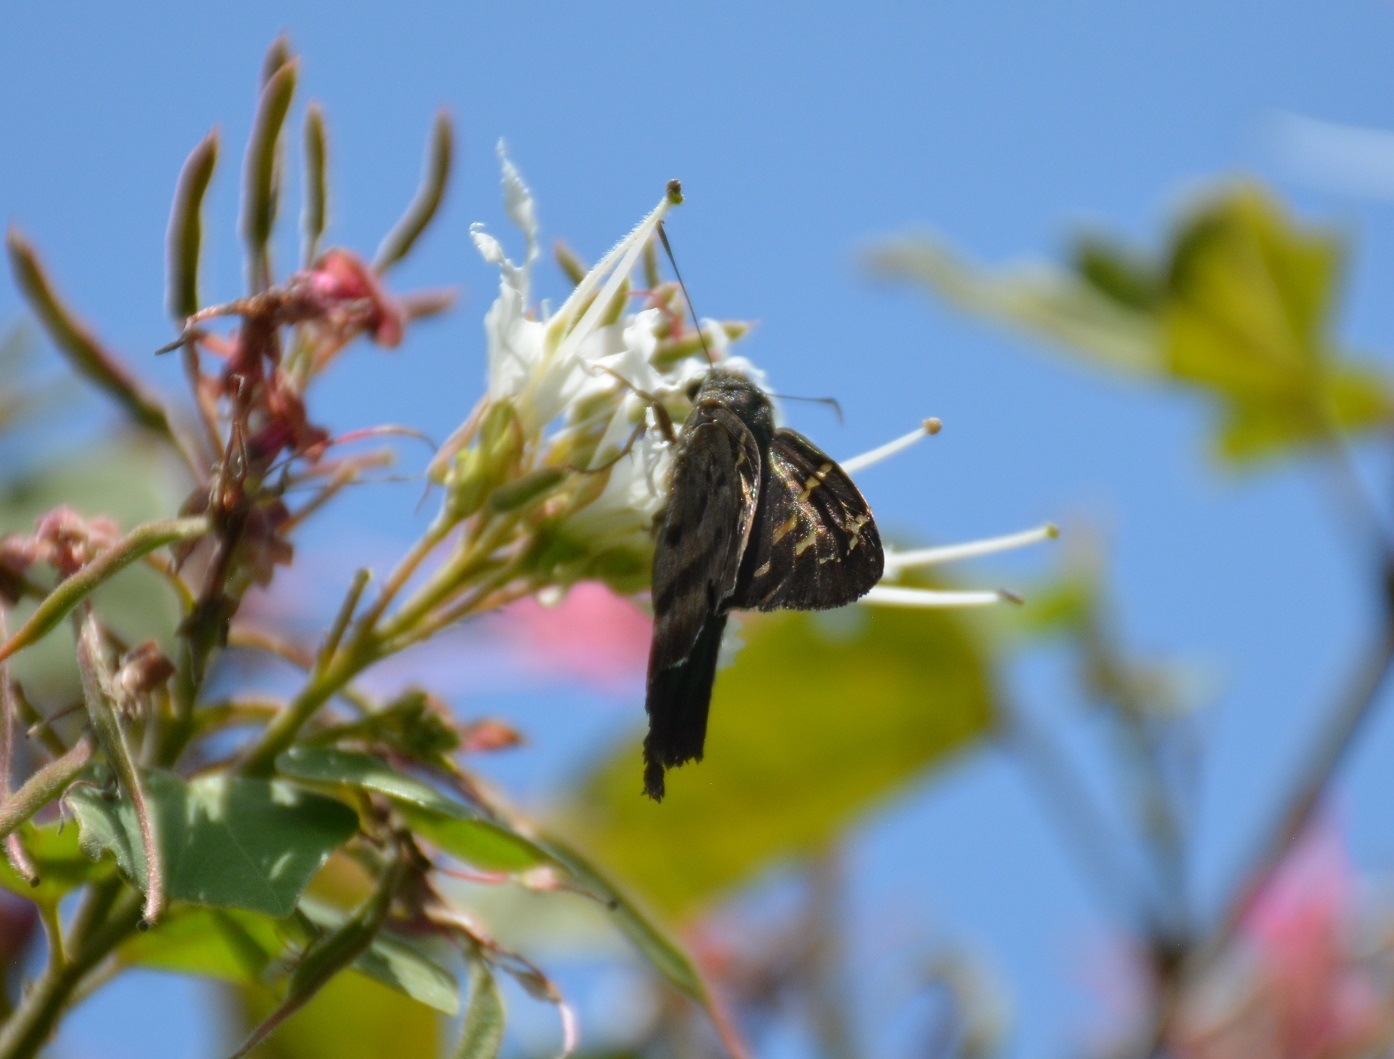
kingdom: Animalia
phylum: Arthropoda
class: Insecta
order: Lepidoptera
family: Hesperiidae
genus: Thorybes
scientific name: Thorybes
